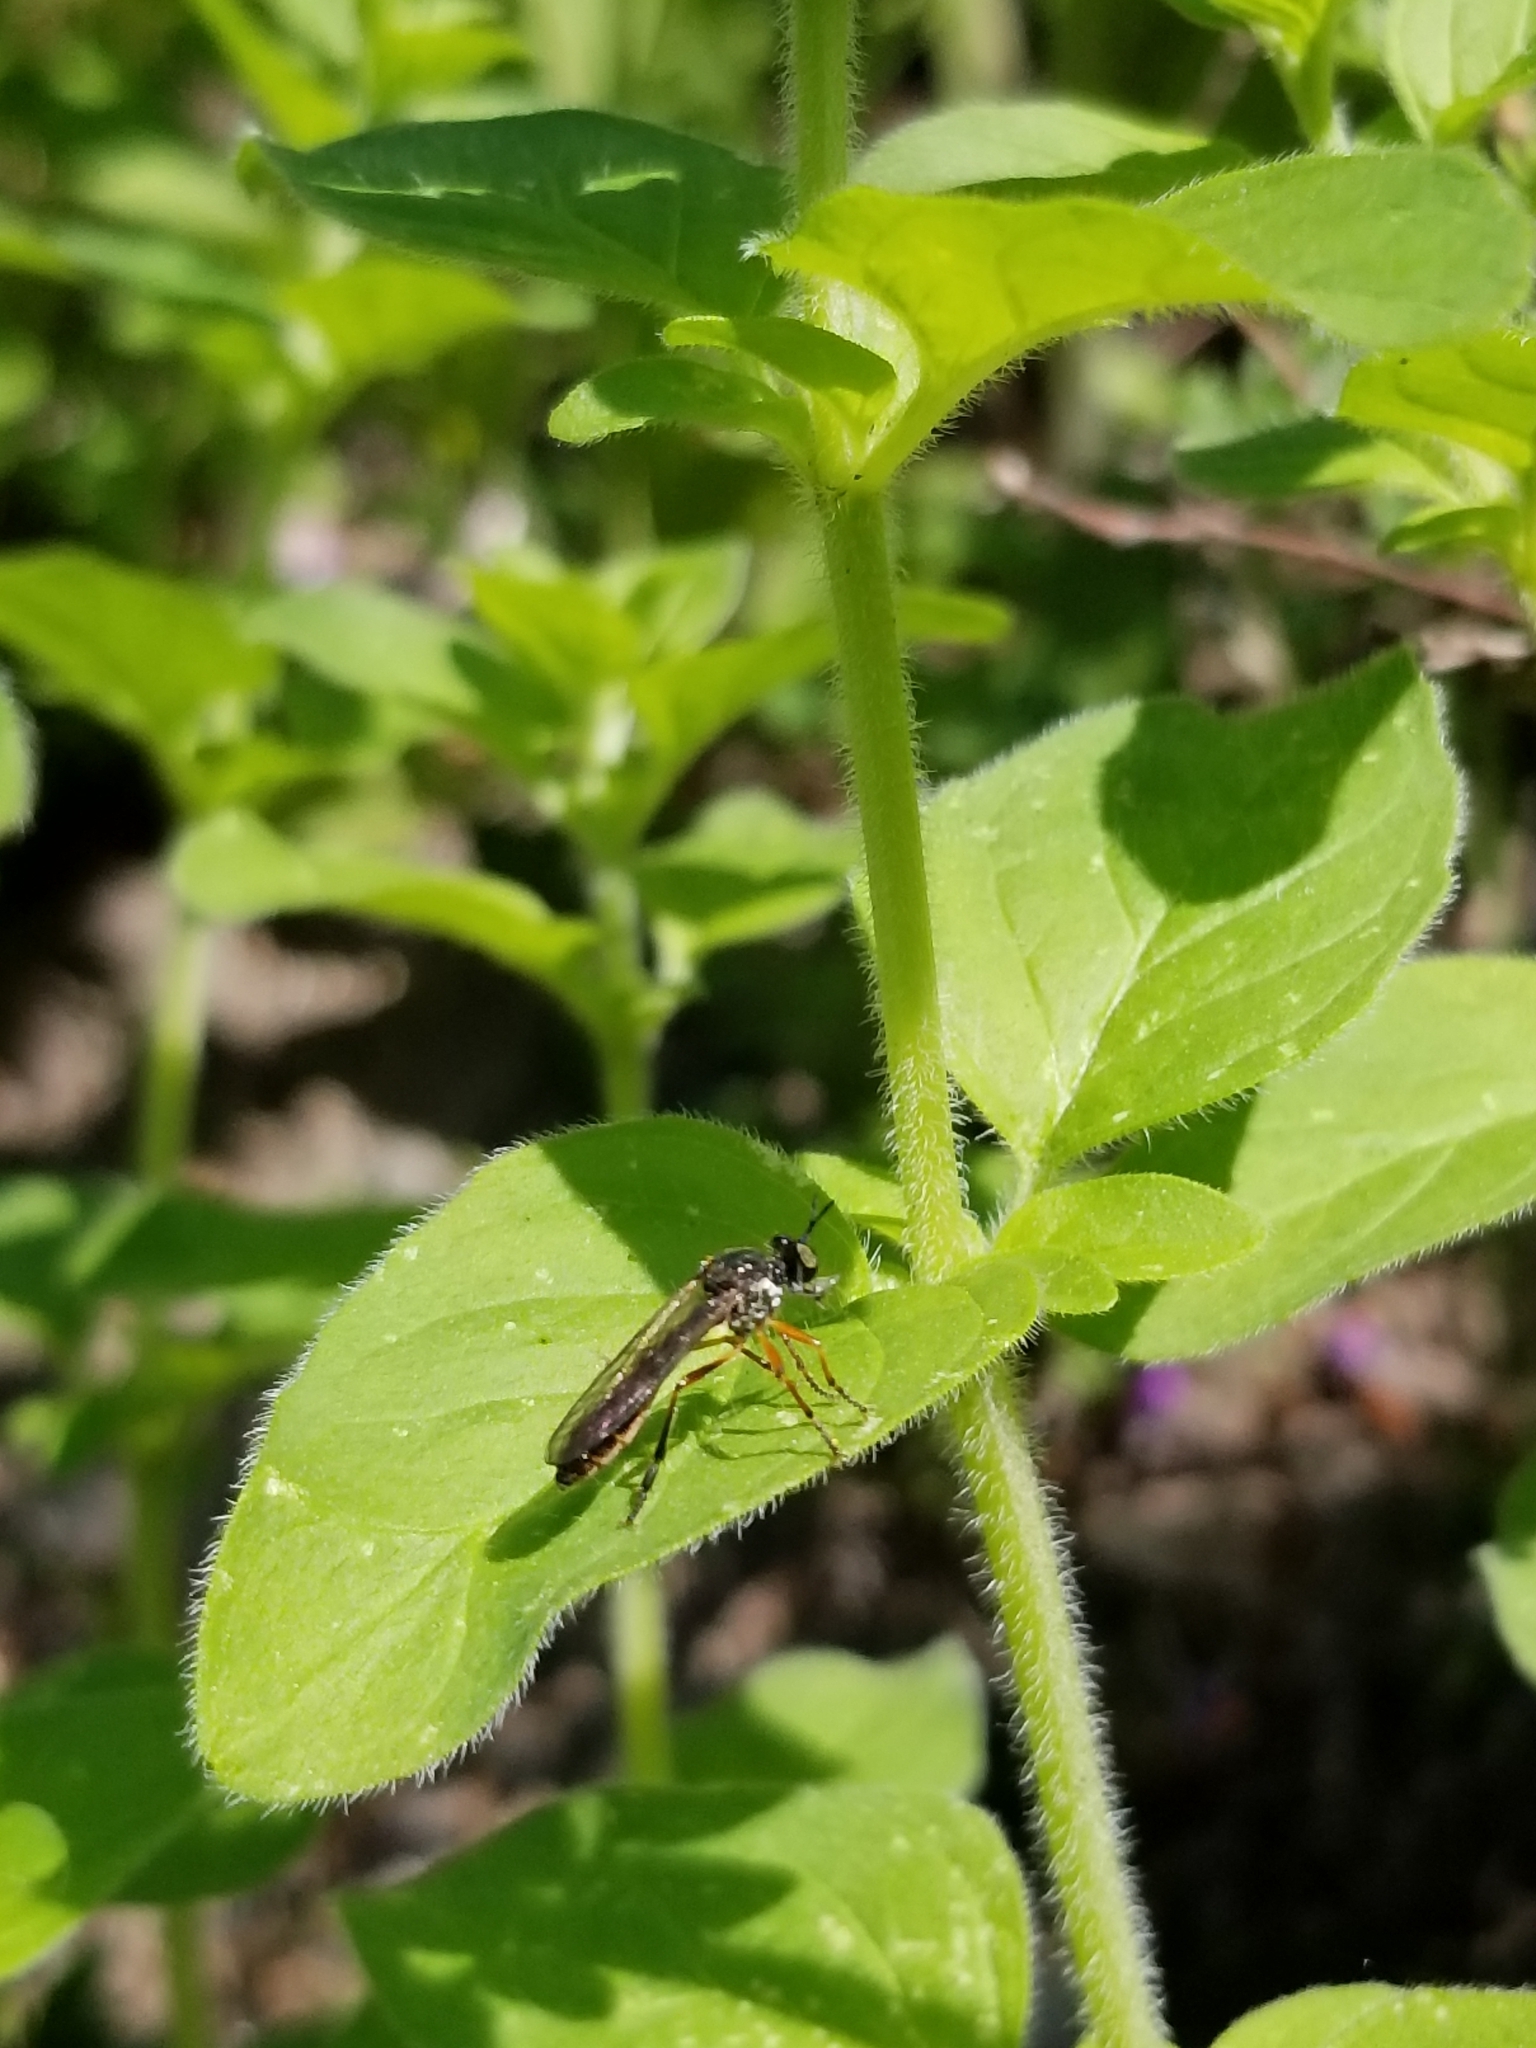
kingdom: Animalia
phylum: Arthropoda
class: Insecta
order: Diptera
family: Asilidae
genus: Dioctria
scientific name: Dioctria hyalipennis
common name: Stripe-legged robberfly
